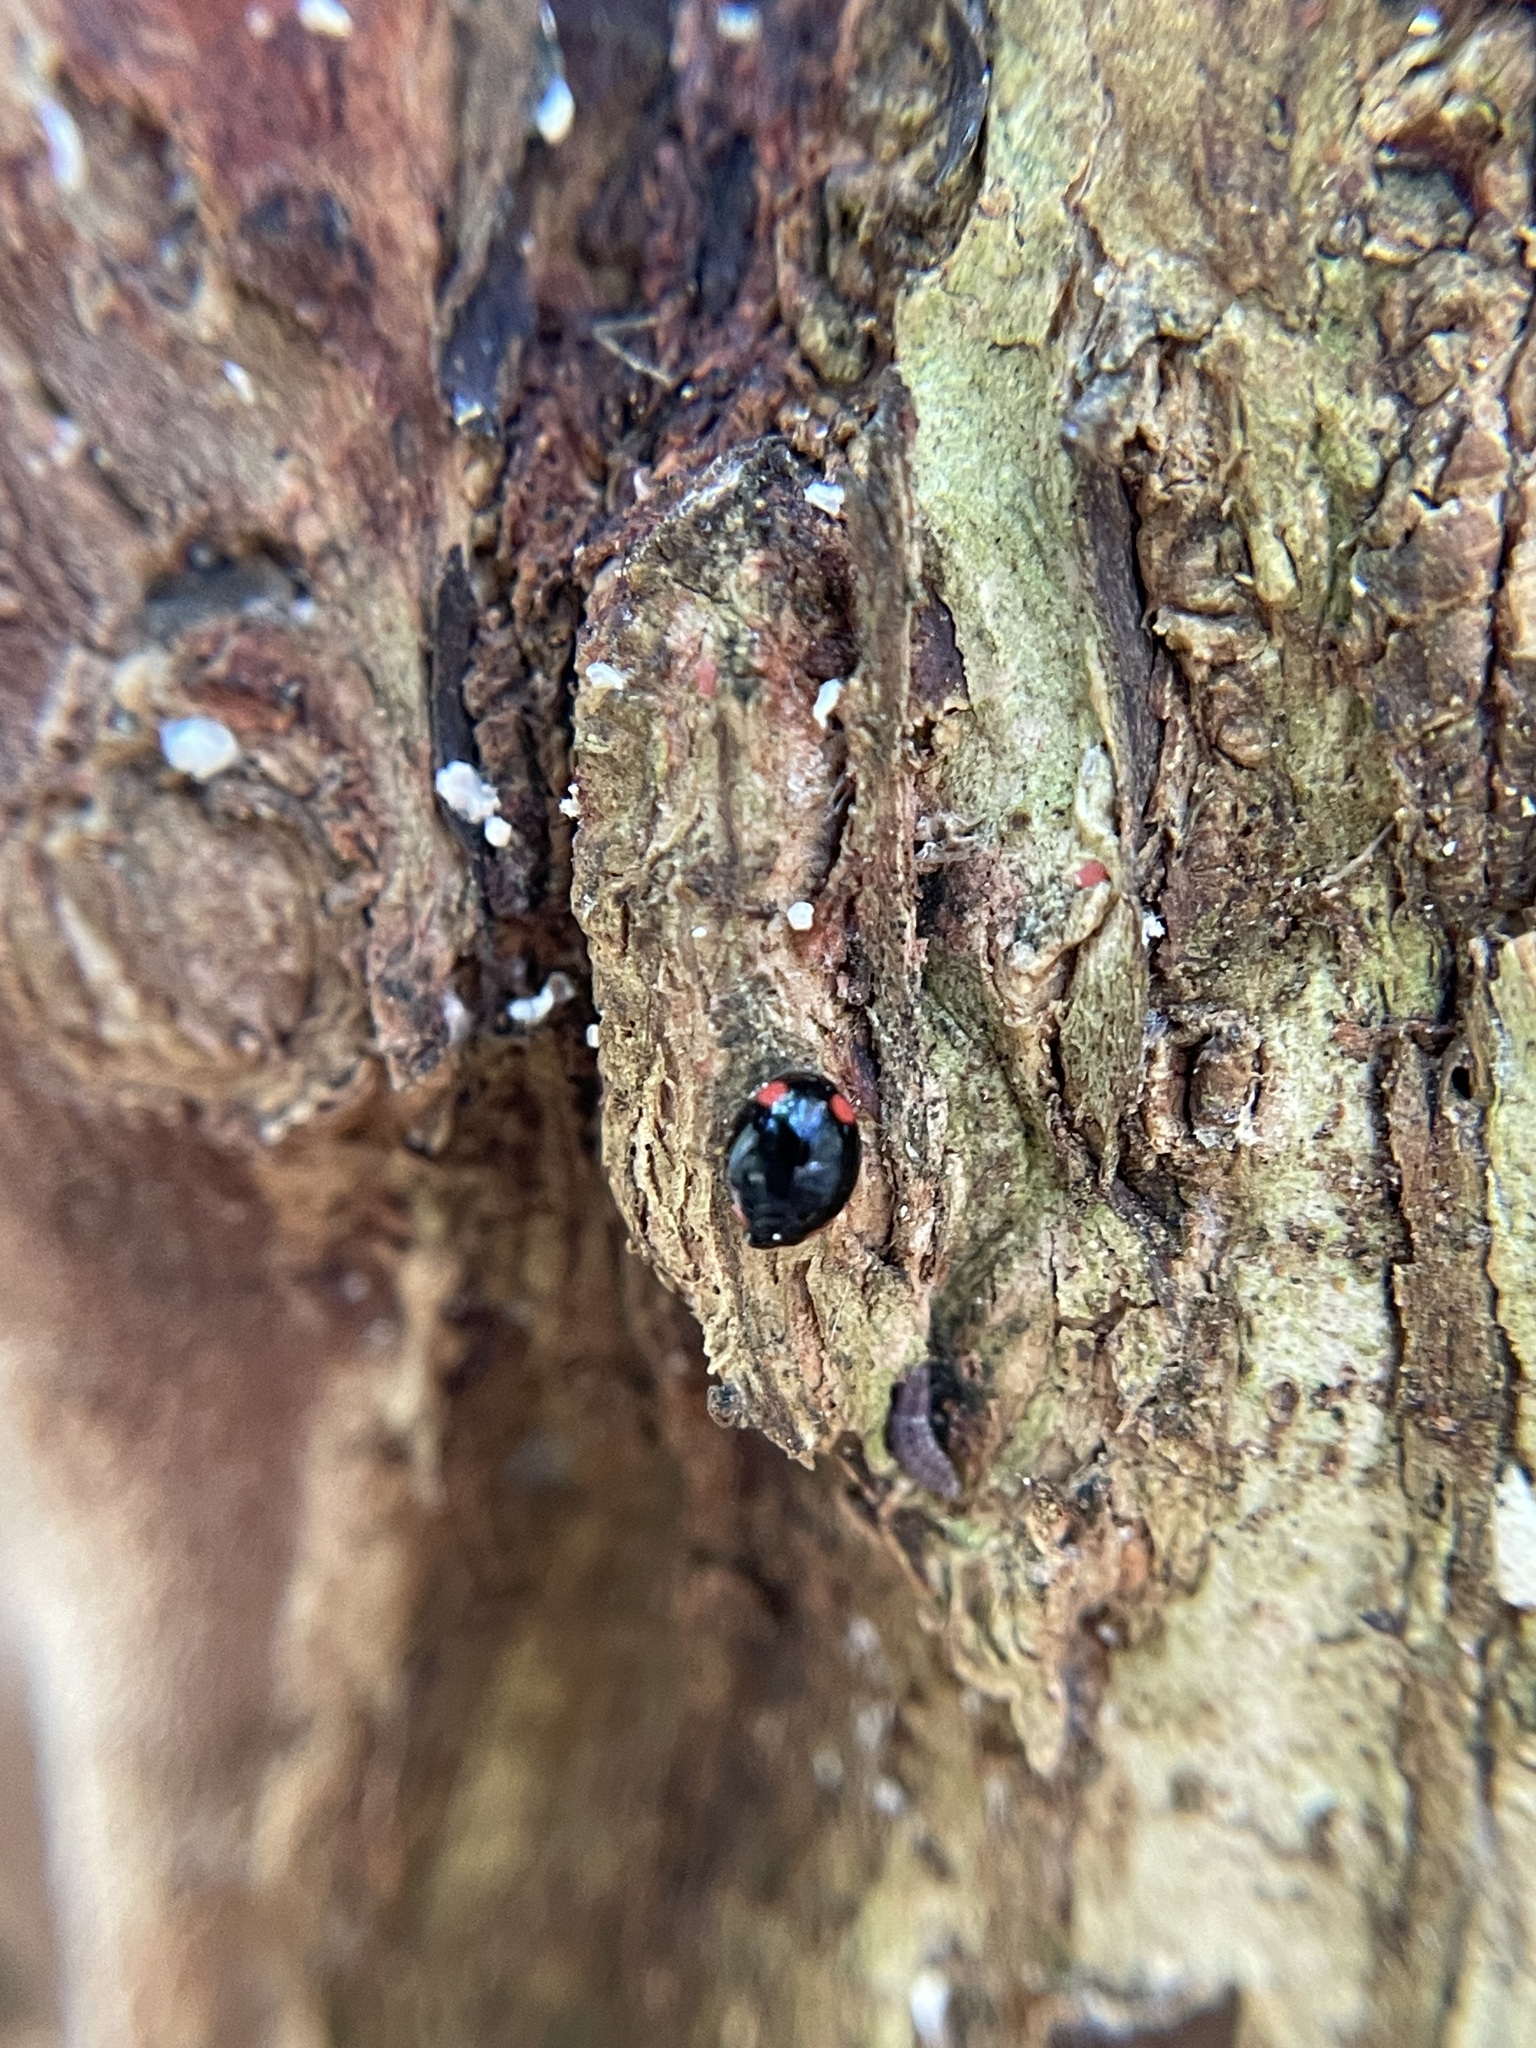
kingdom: Animalia
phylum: Arthropoda
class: Insecta
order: Coleoptera
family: Coccinellidae
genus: Hyperaspis
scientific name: Hyperaspis bigeminata
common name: Bigeminate sigil lady beetle
